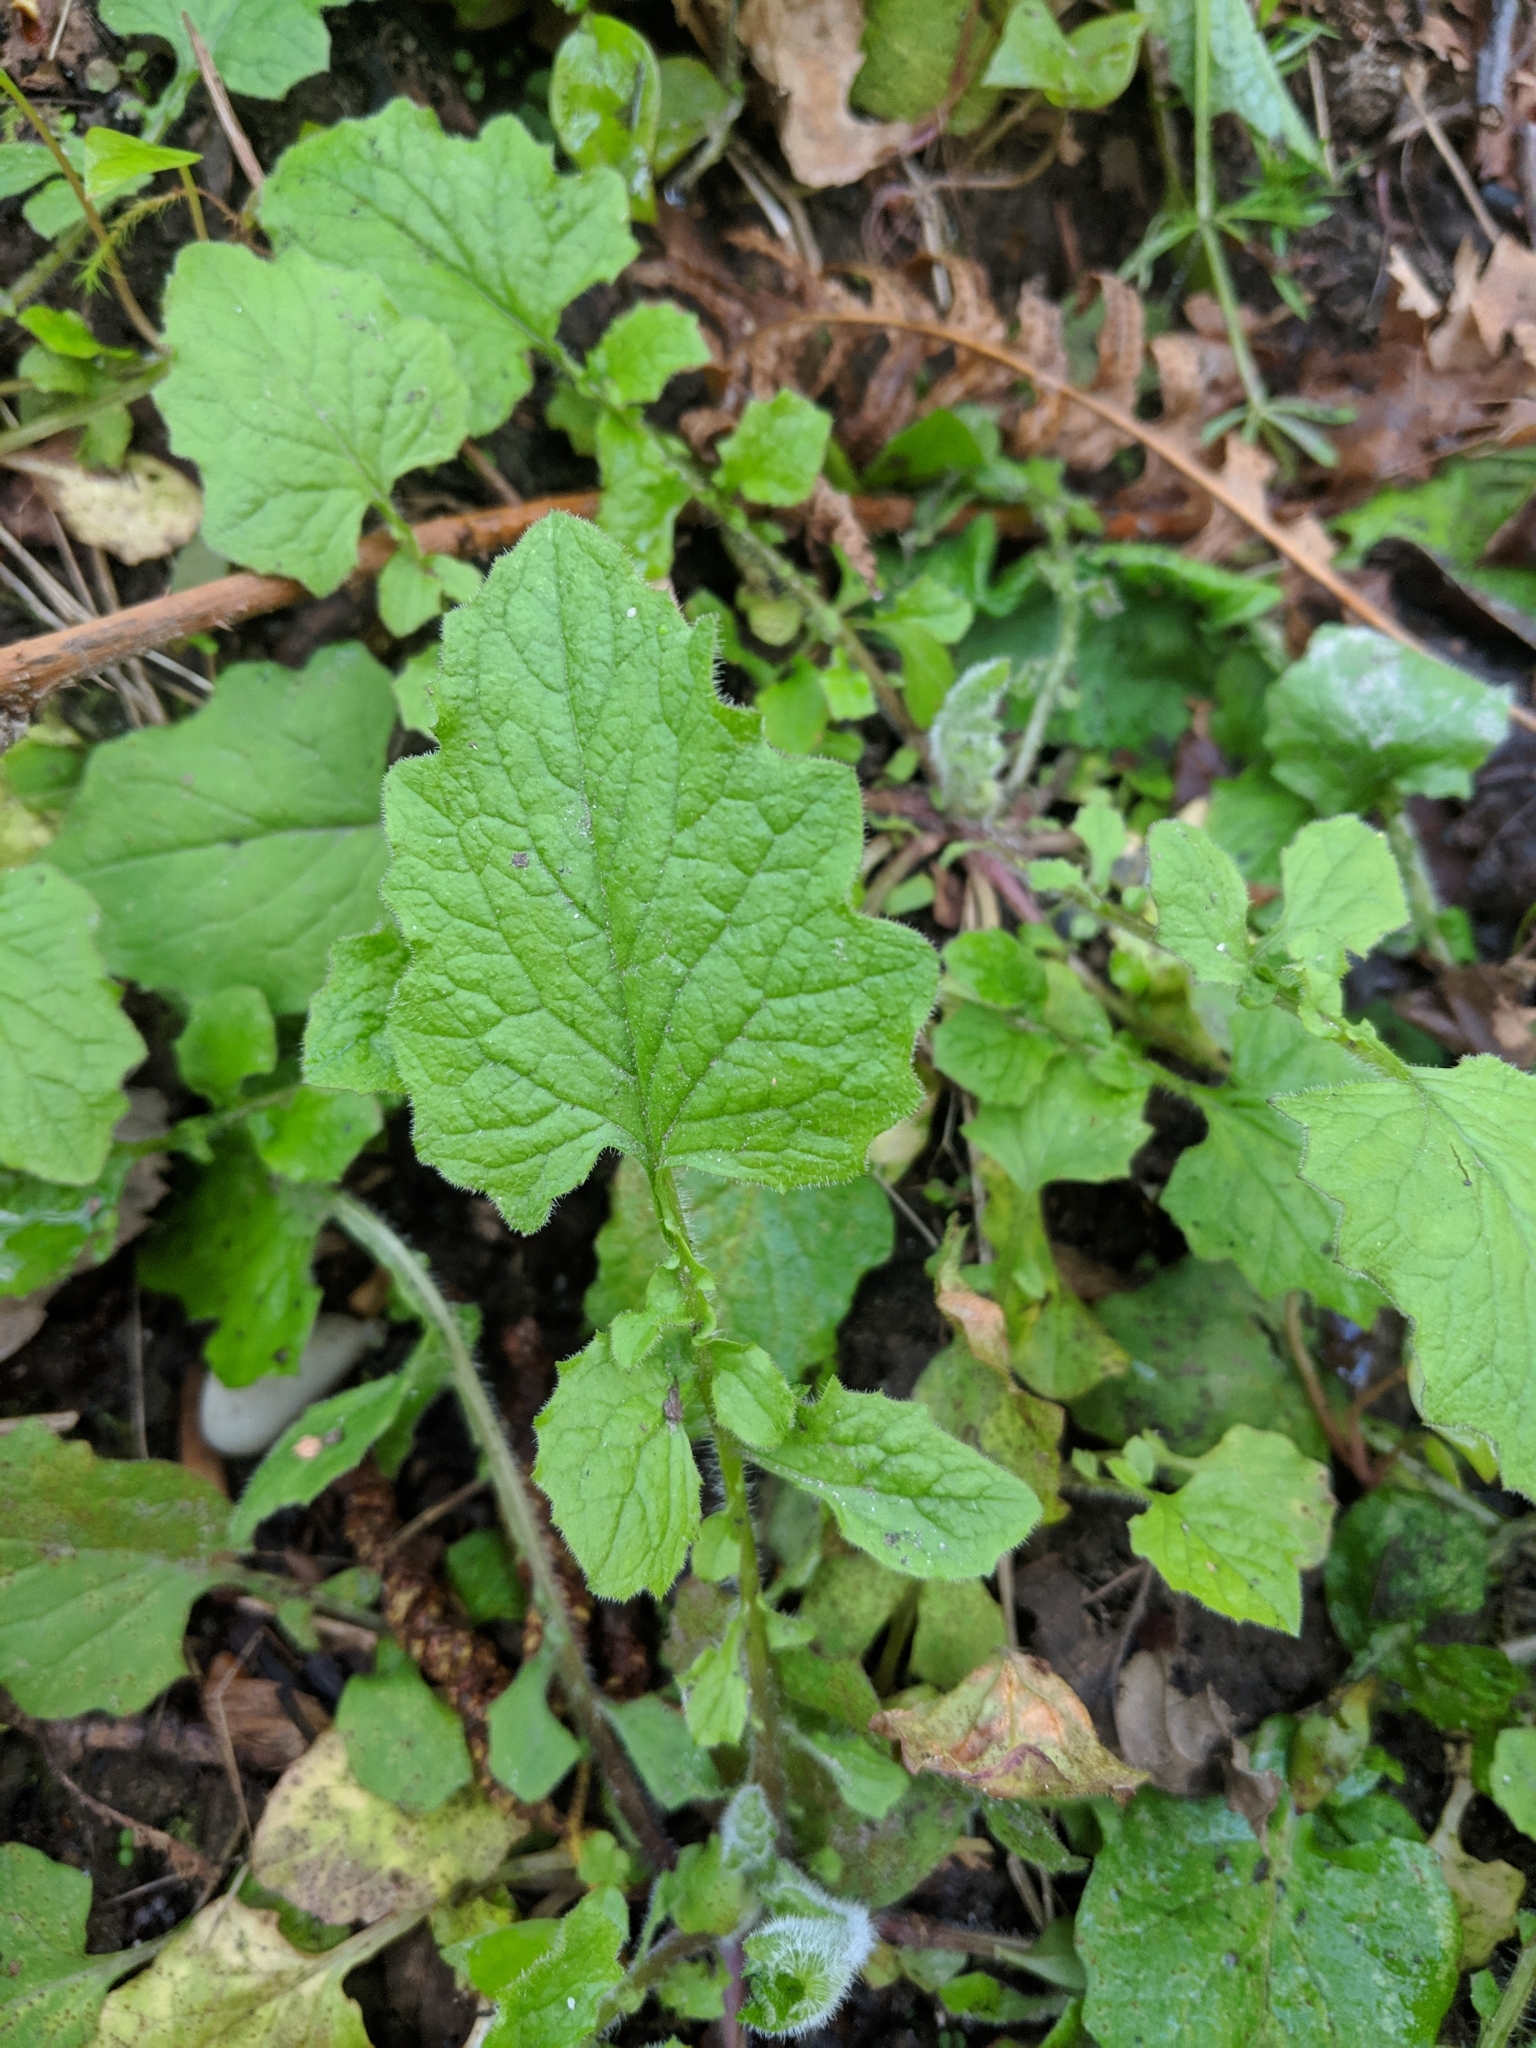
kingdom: Plantae
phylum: Tracheophyta
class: Magnoliopsida
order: Asterales
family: Asteraceae
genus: Lapsana
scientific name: Lapsana communis
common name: Nipplewort
